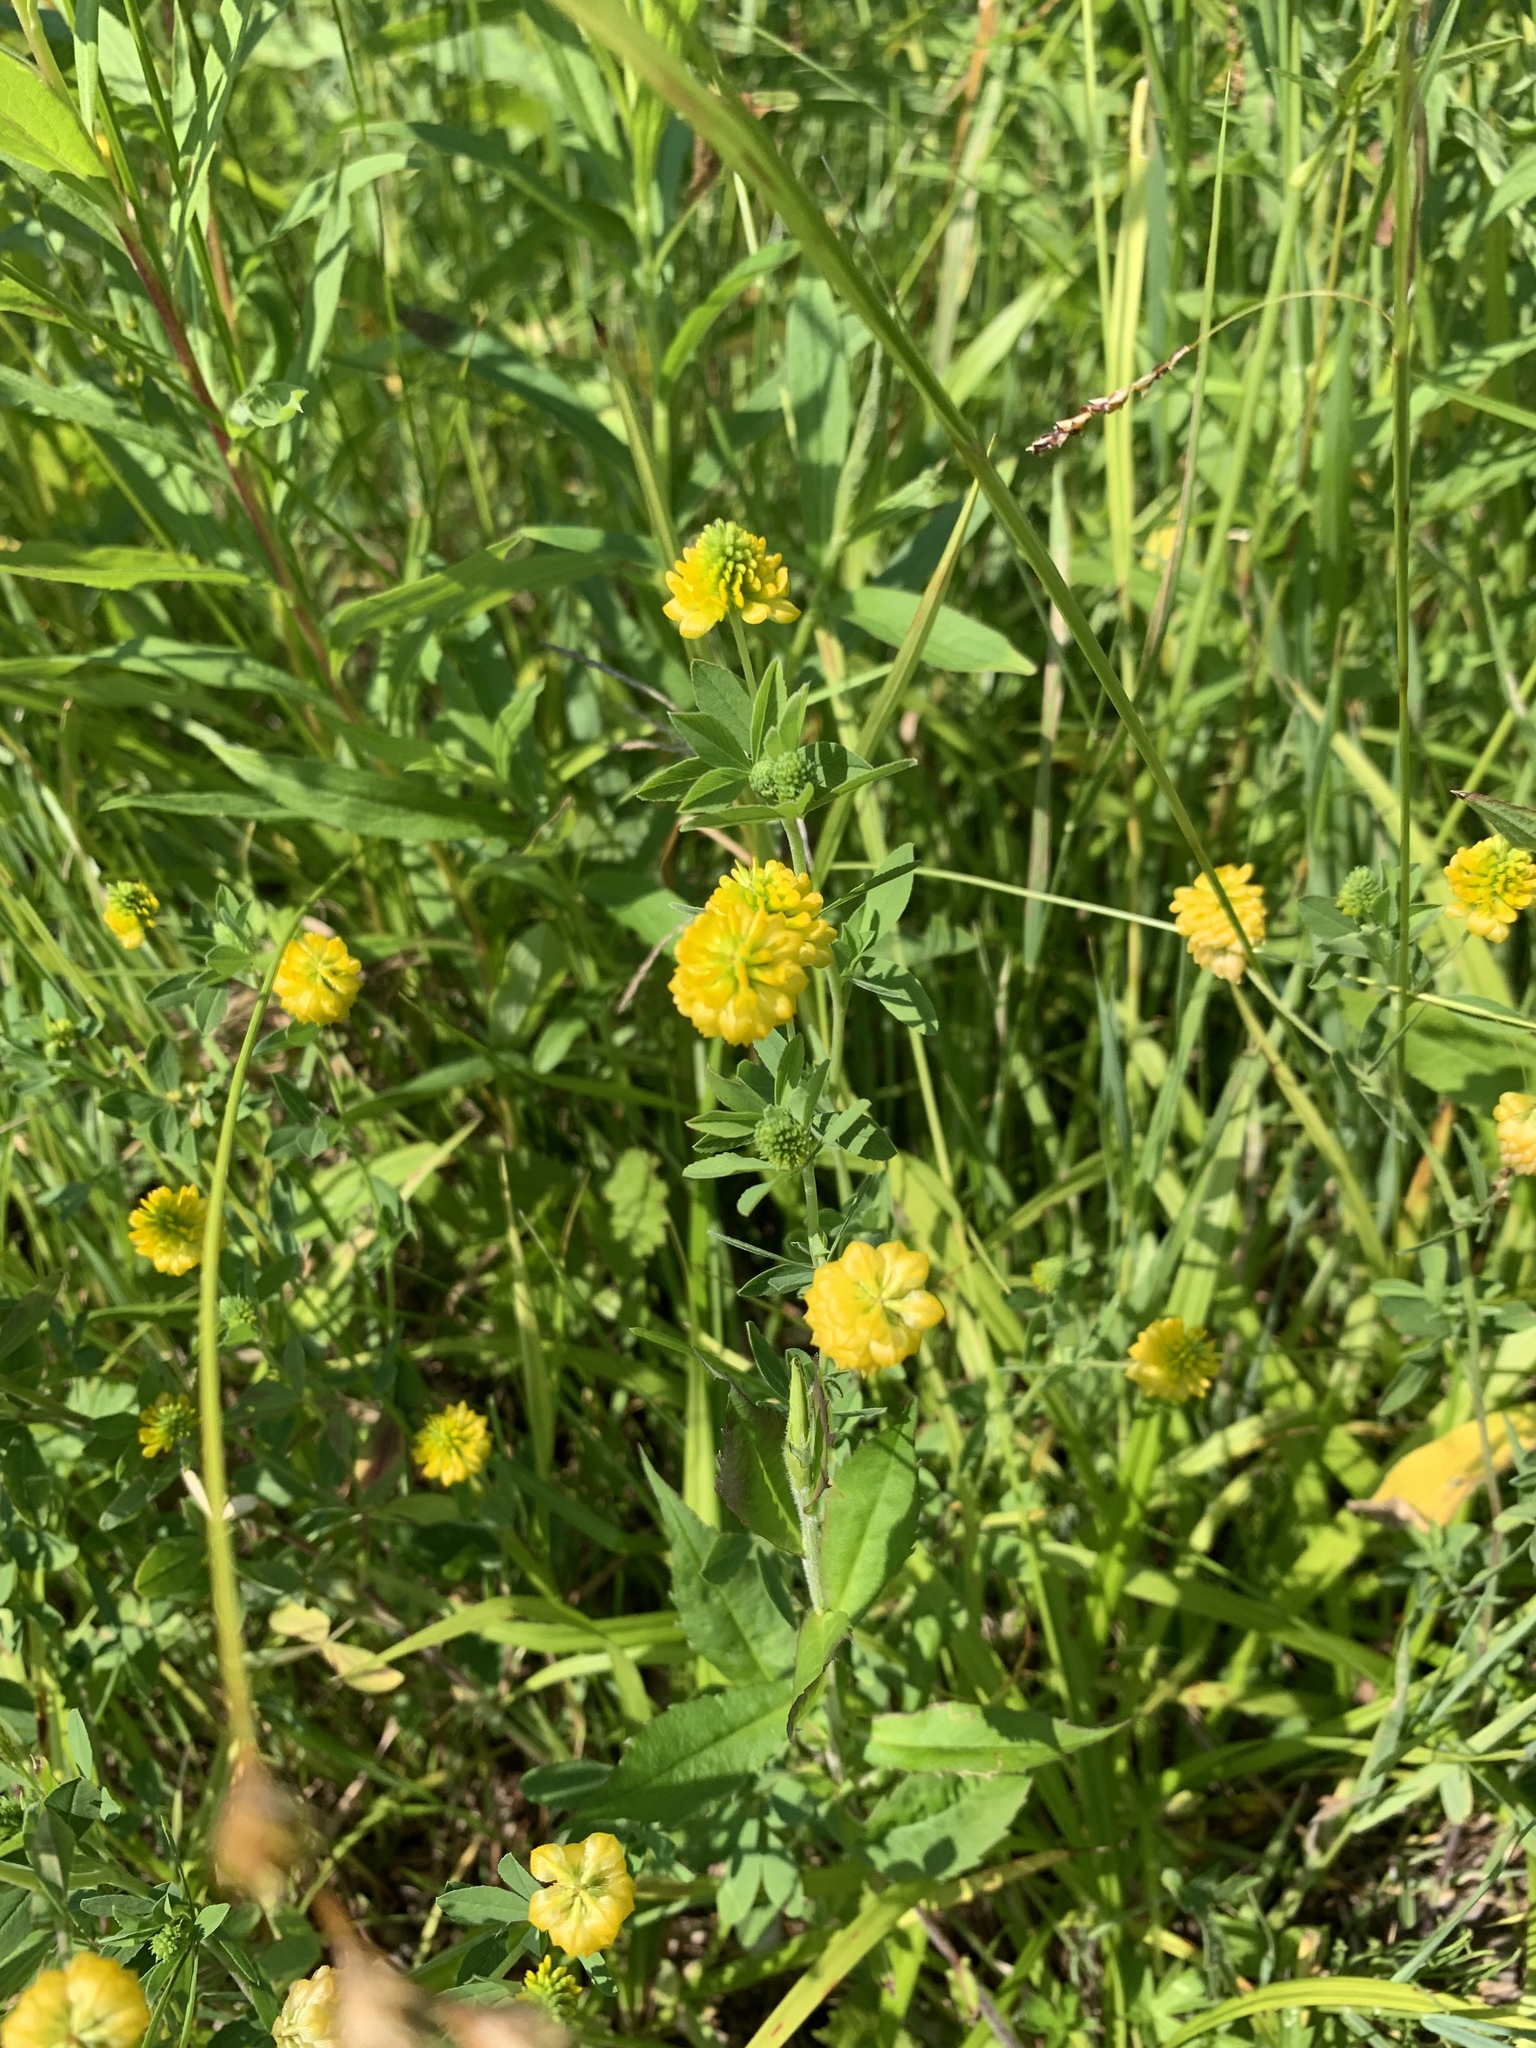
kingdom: Plantae
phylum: Tracheophyta
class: Magnoliopsida
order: Fabales
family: Fabaceae
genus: Trifolium
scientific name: Trifolium aureum
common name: Golden clover
